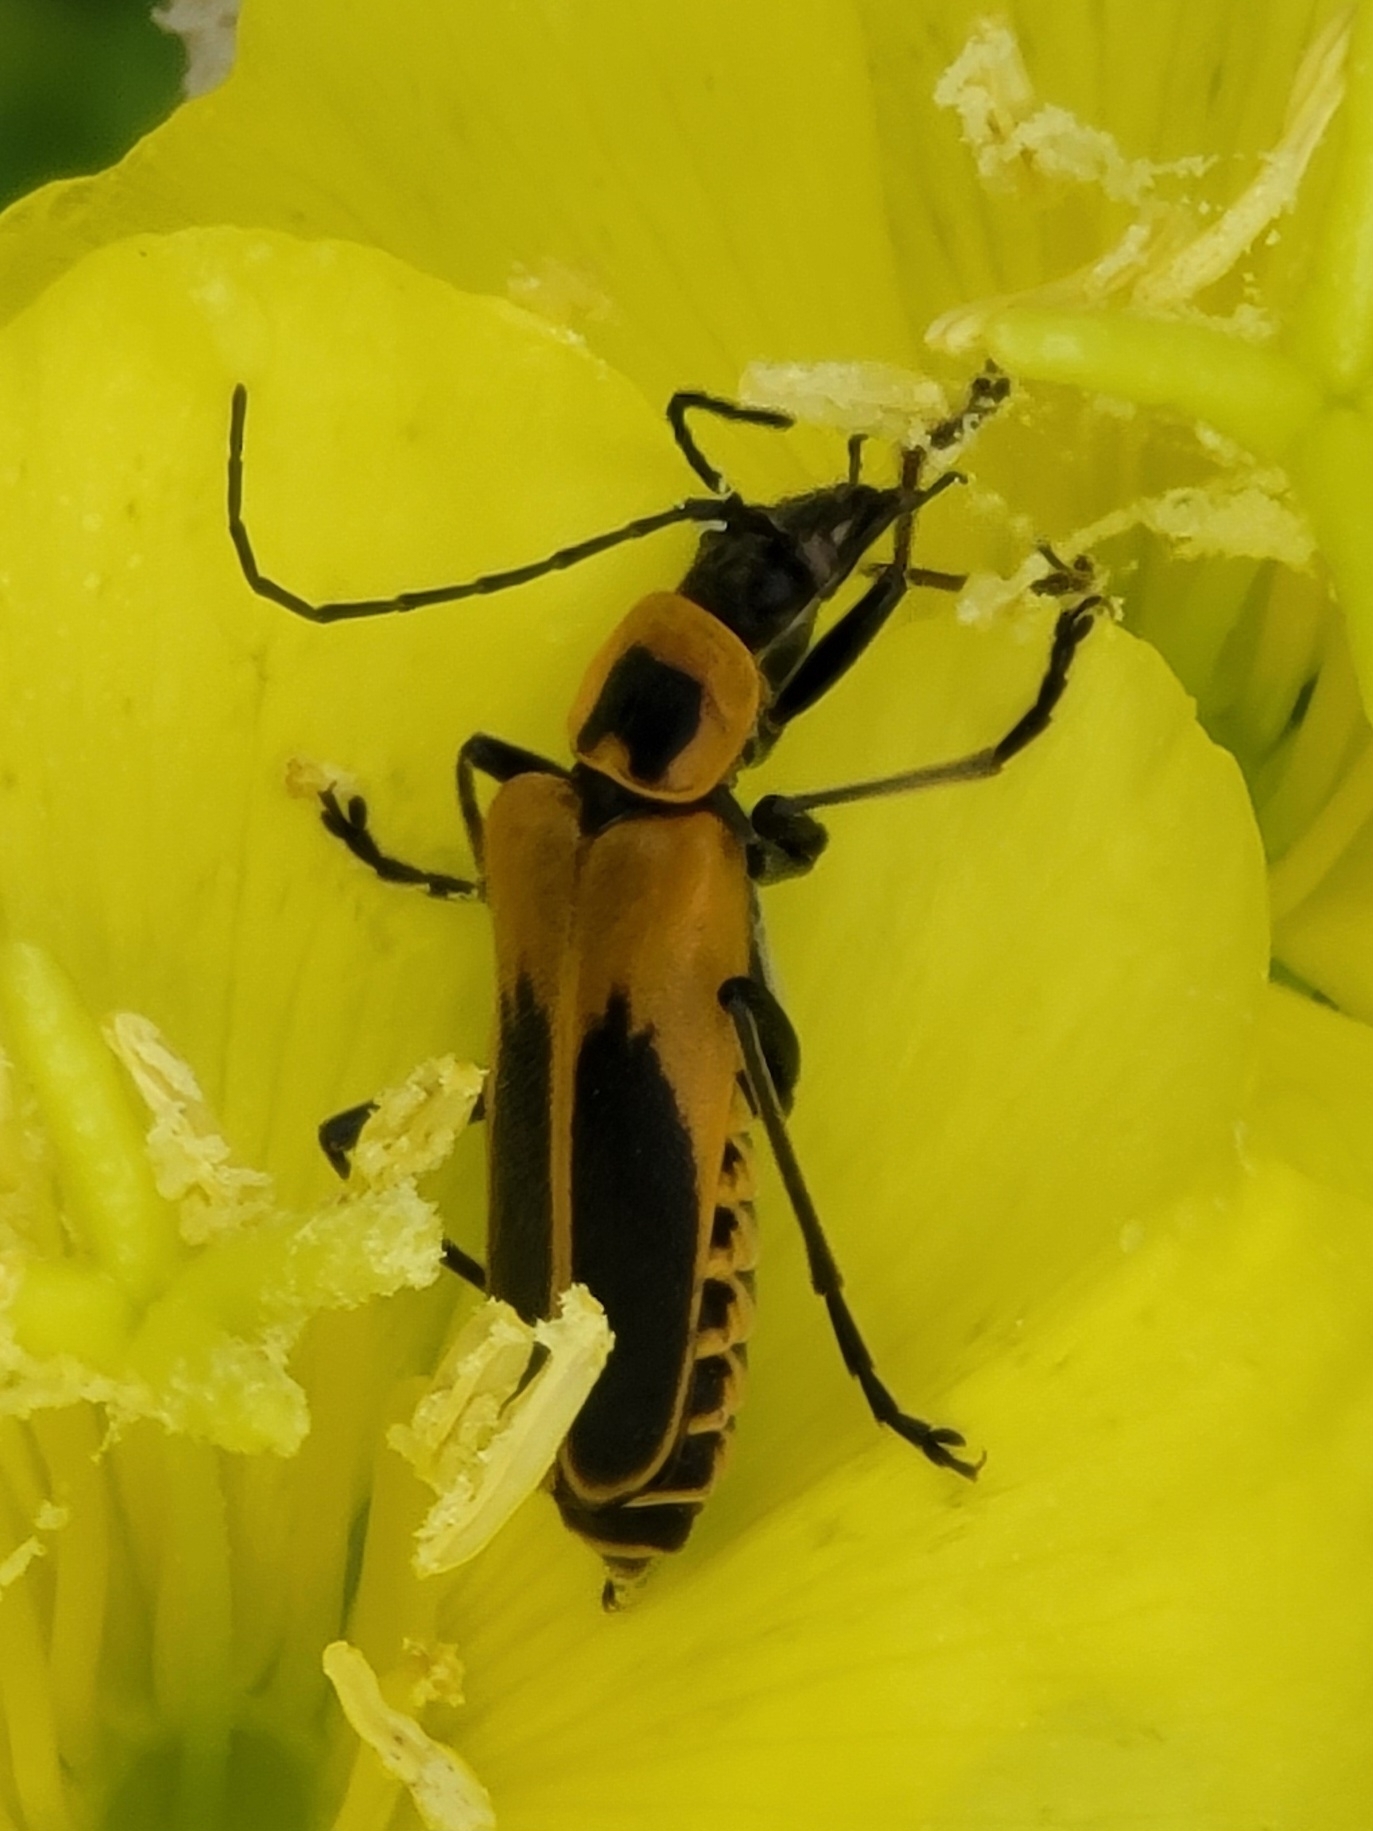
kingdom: Animalia
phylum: Arthropoda
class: Insecta
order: Coleoptera
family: Cantharidae
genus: Chauliognathus
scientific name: Chauliognathus pensylvanicus
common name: Goldenrod soldier beetle
